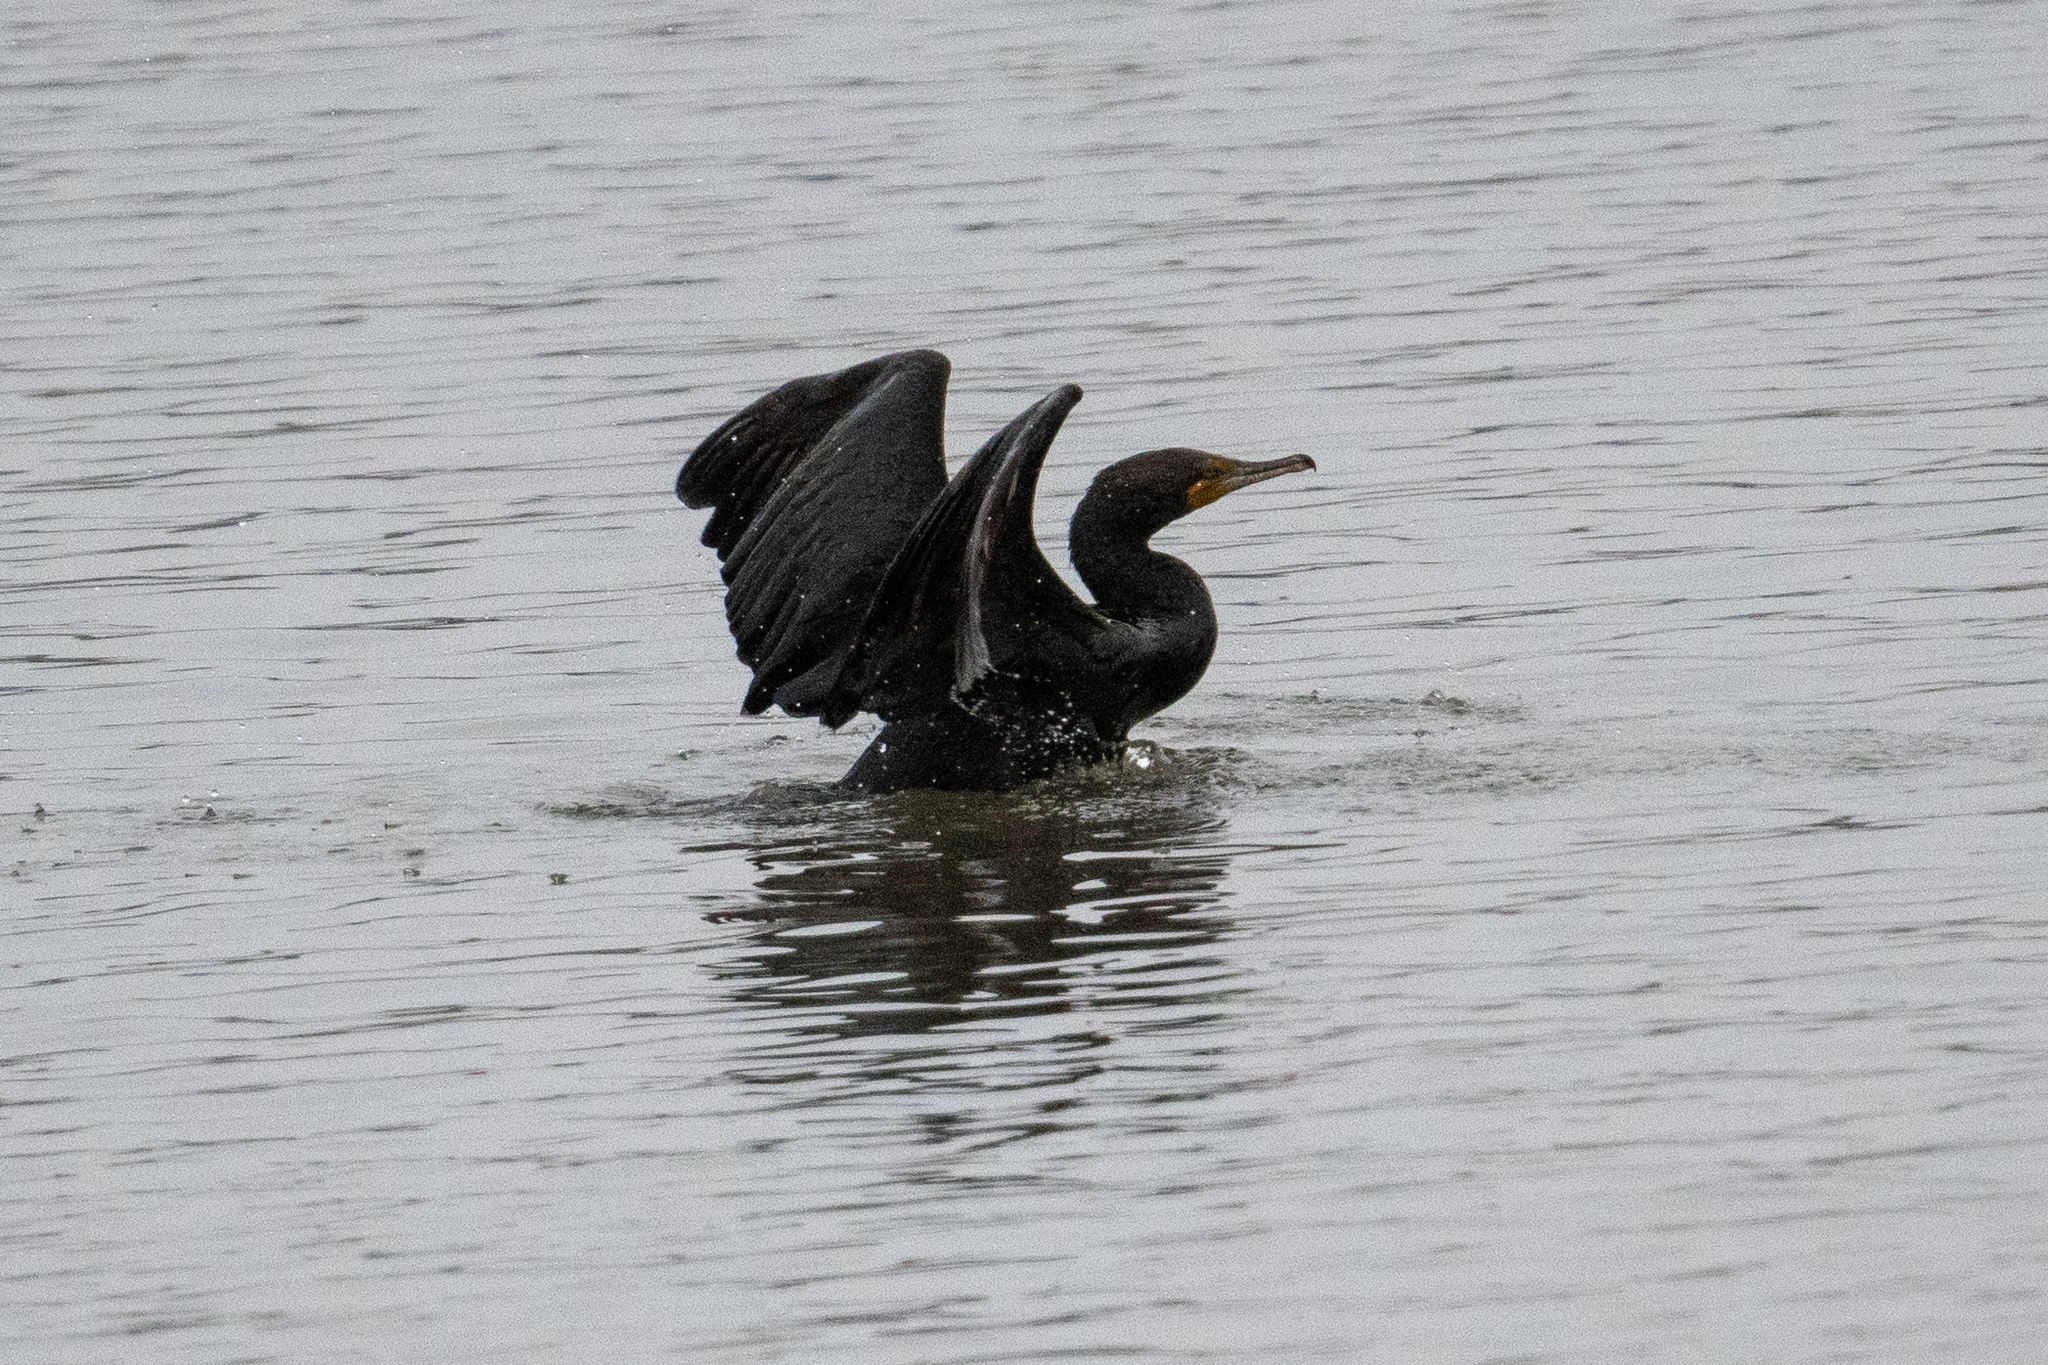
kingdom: Animalia
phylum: Chordata
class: Aves
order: Suliformes
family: Phalacrocoracidae
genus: Phalacrocorax
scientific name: Phalacrocorax auritus
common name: Double-crested cormorant
